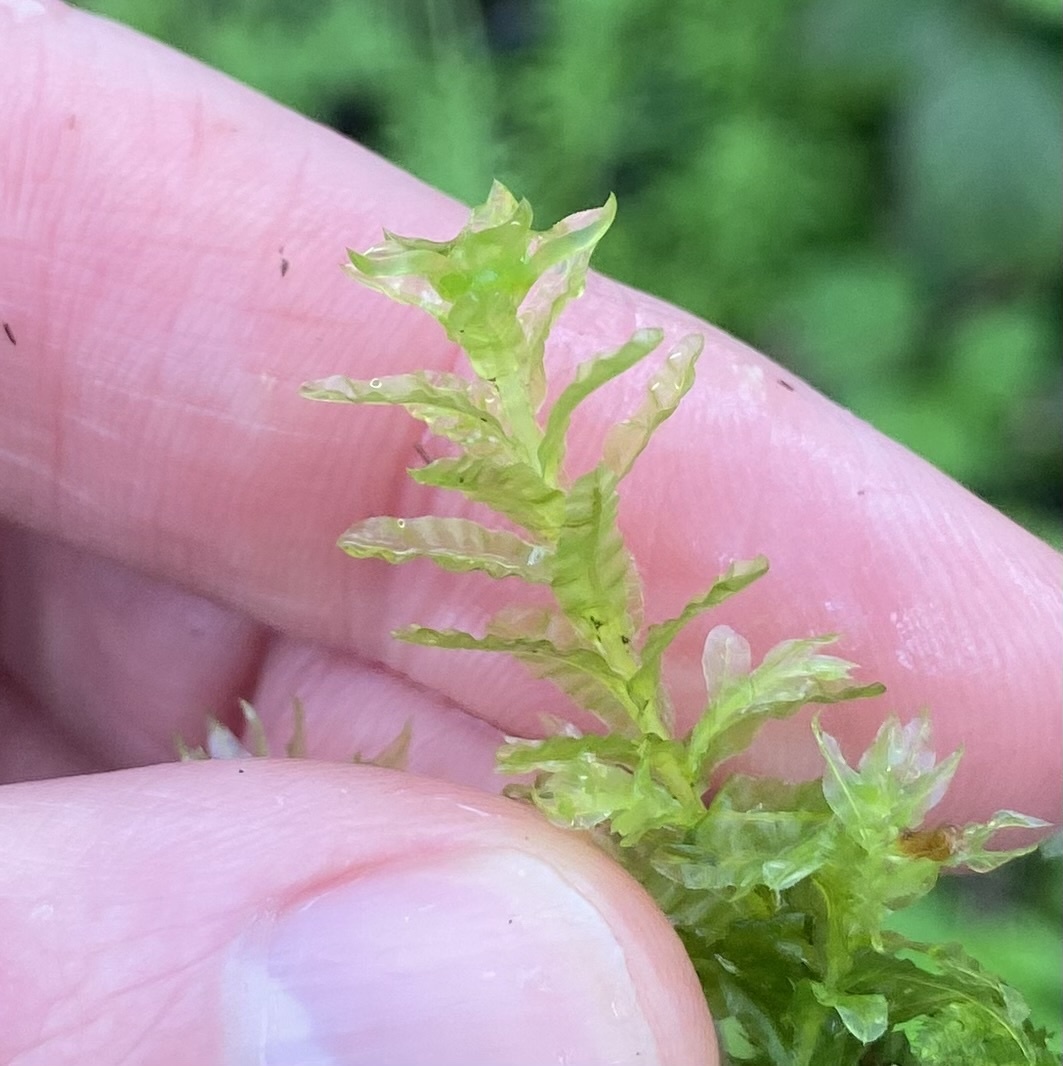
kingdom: Plantae
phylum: Bryophyta
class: Bryopsida
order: Bryales
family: Mniaceae
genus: Plagiomnium
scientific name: Plagiomnium undulatum
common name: Hart's-tongue thyme-moss
